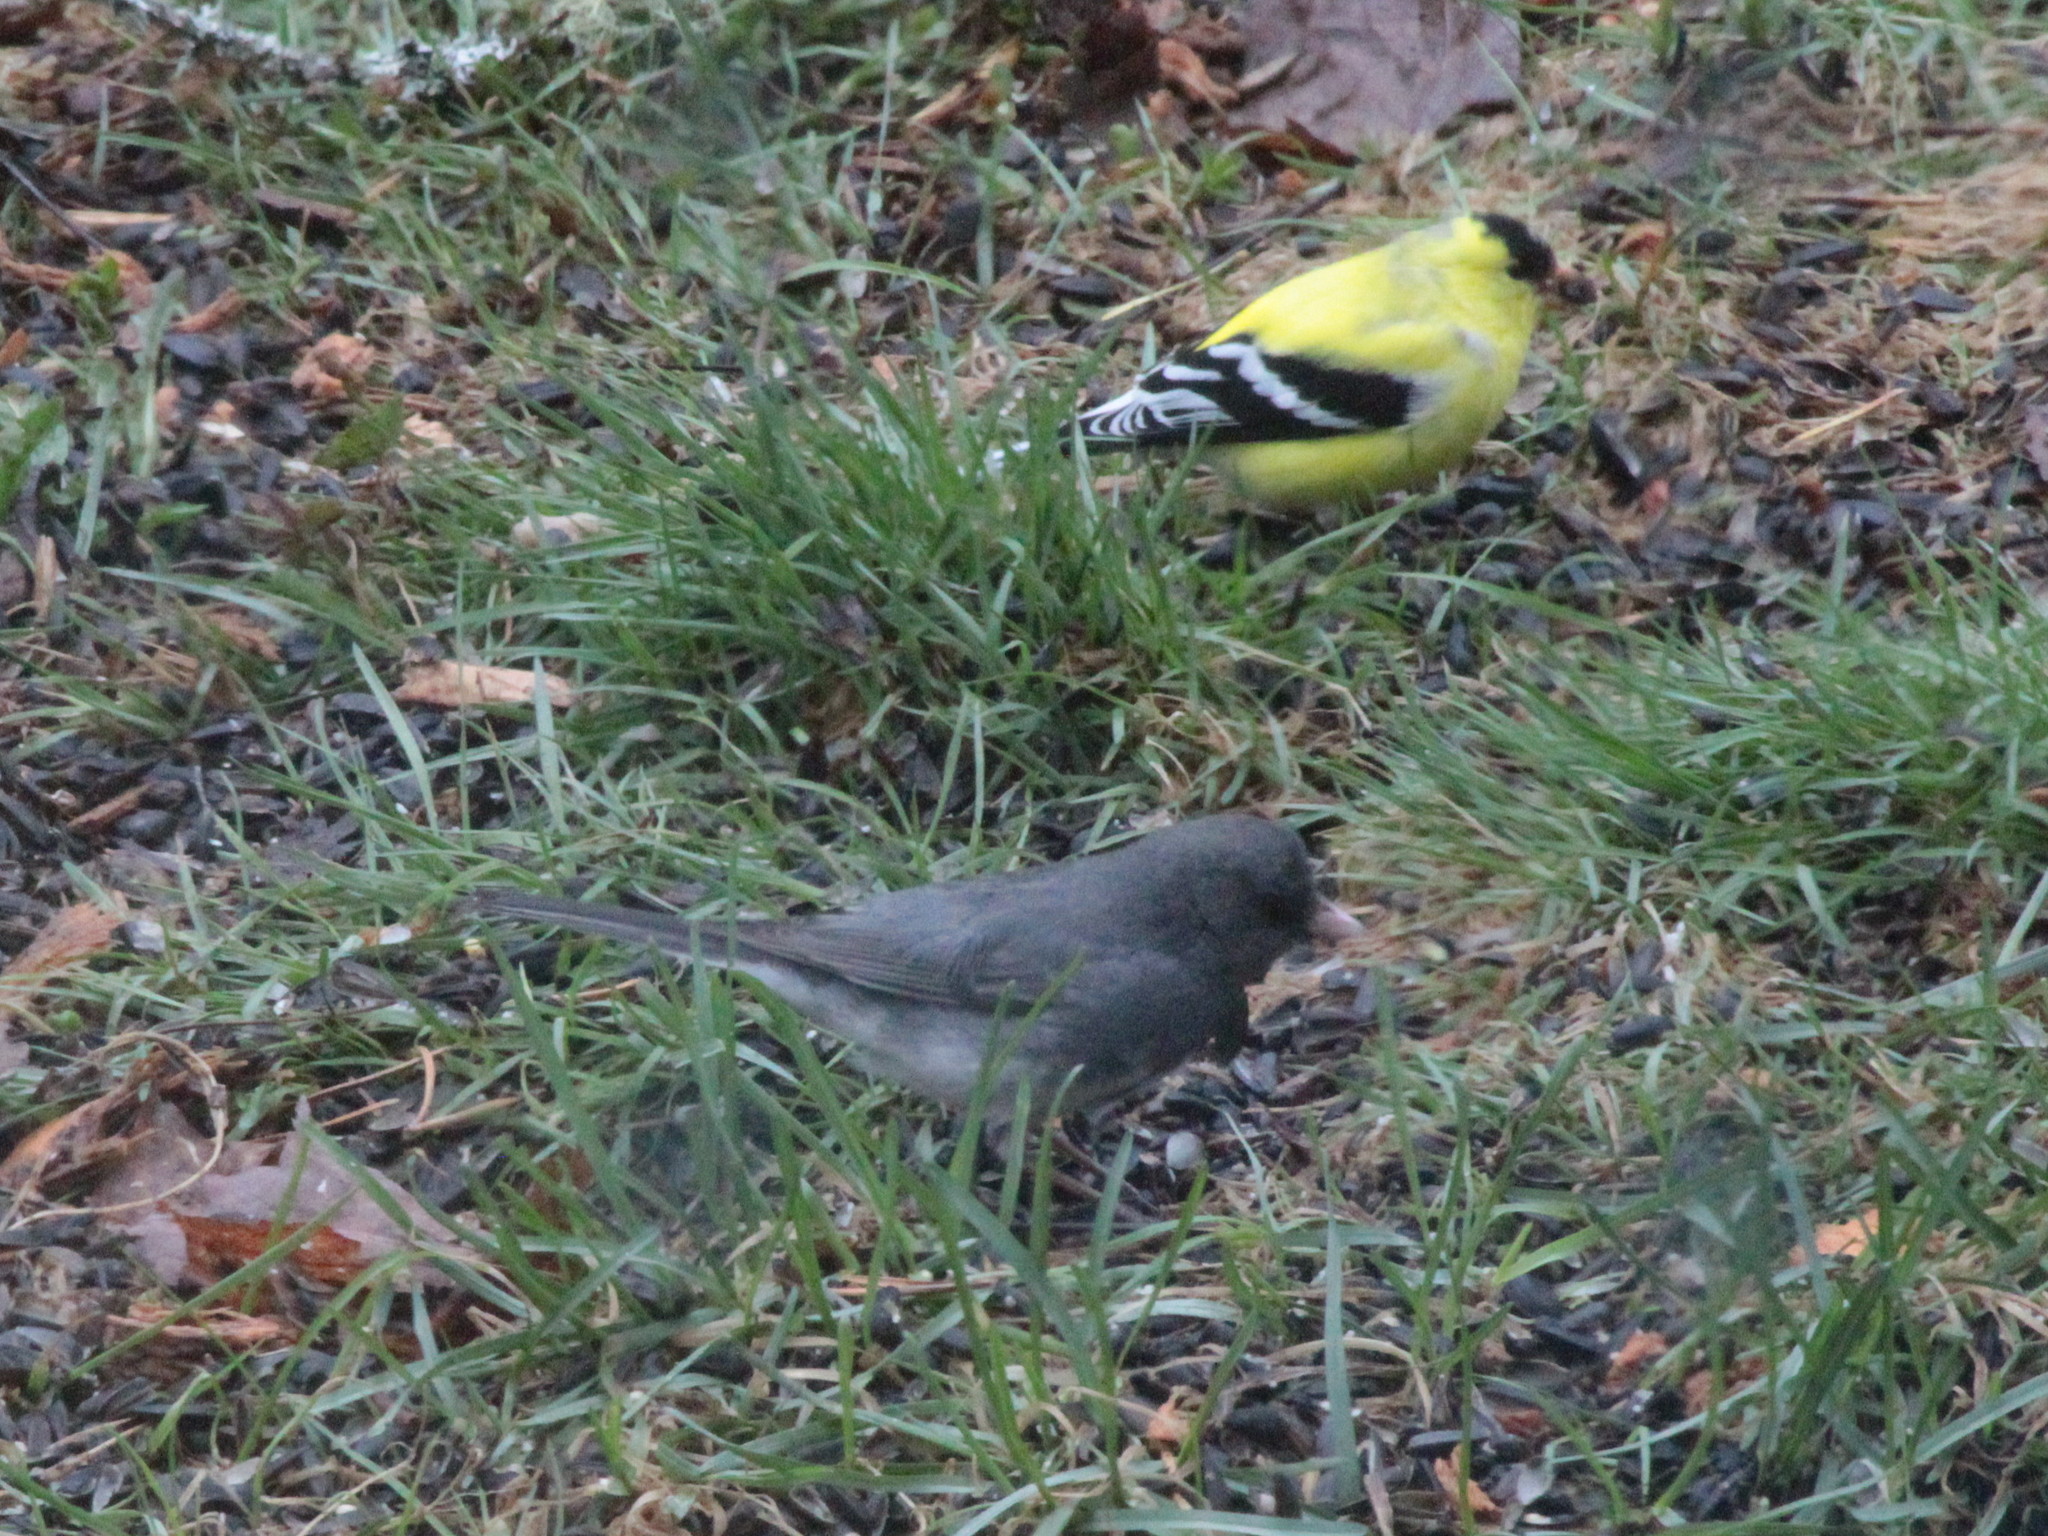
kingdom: Animalia
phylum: Chordata
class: Aves
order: Passeriformes
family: Passerellidae
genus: Junco
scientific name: Junco hyemalis
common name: Dark-eyed junco
